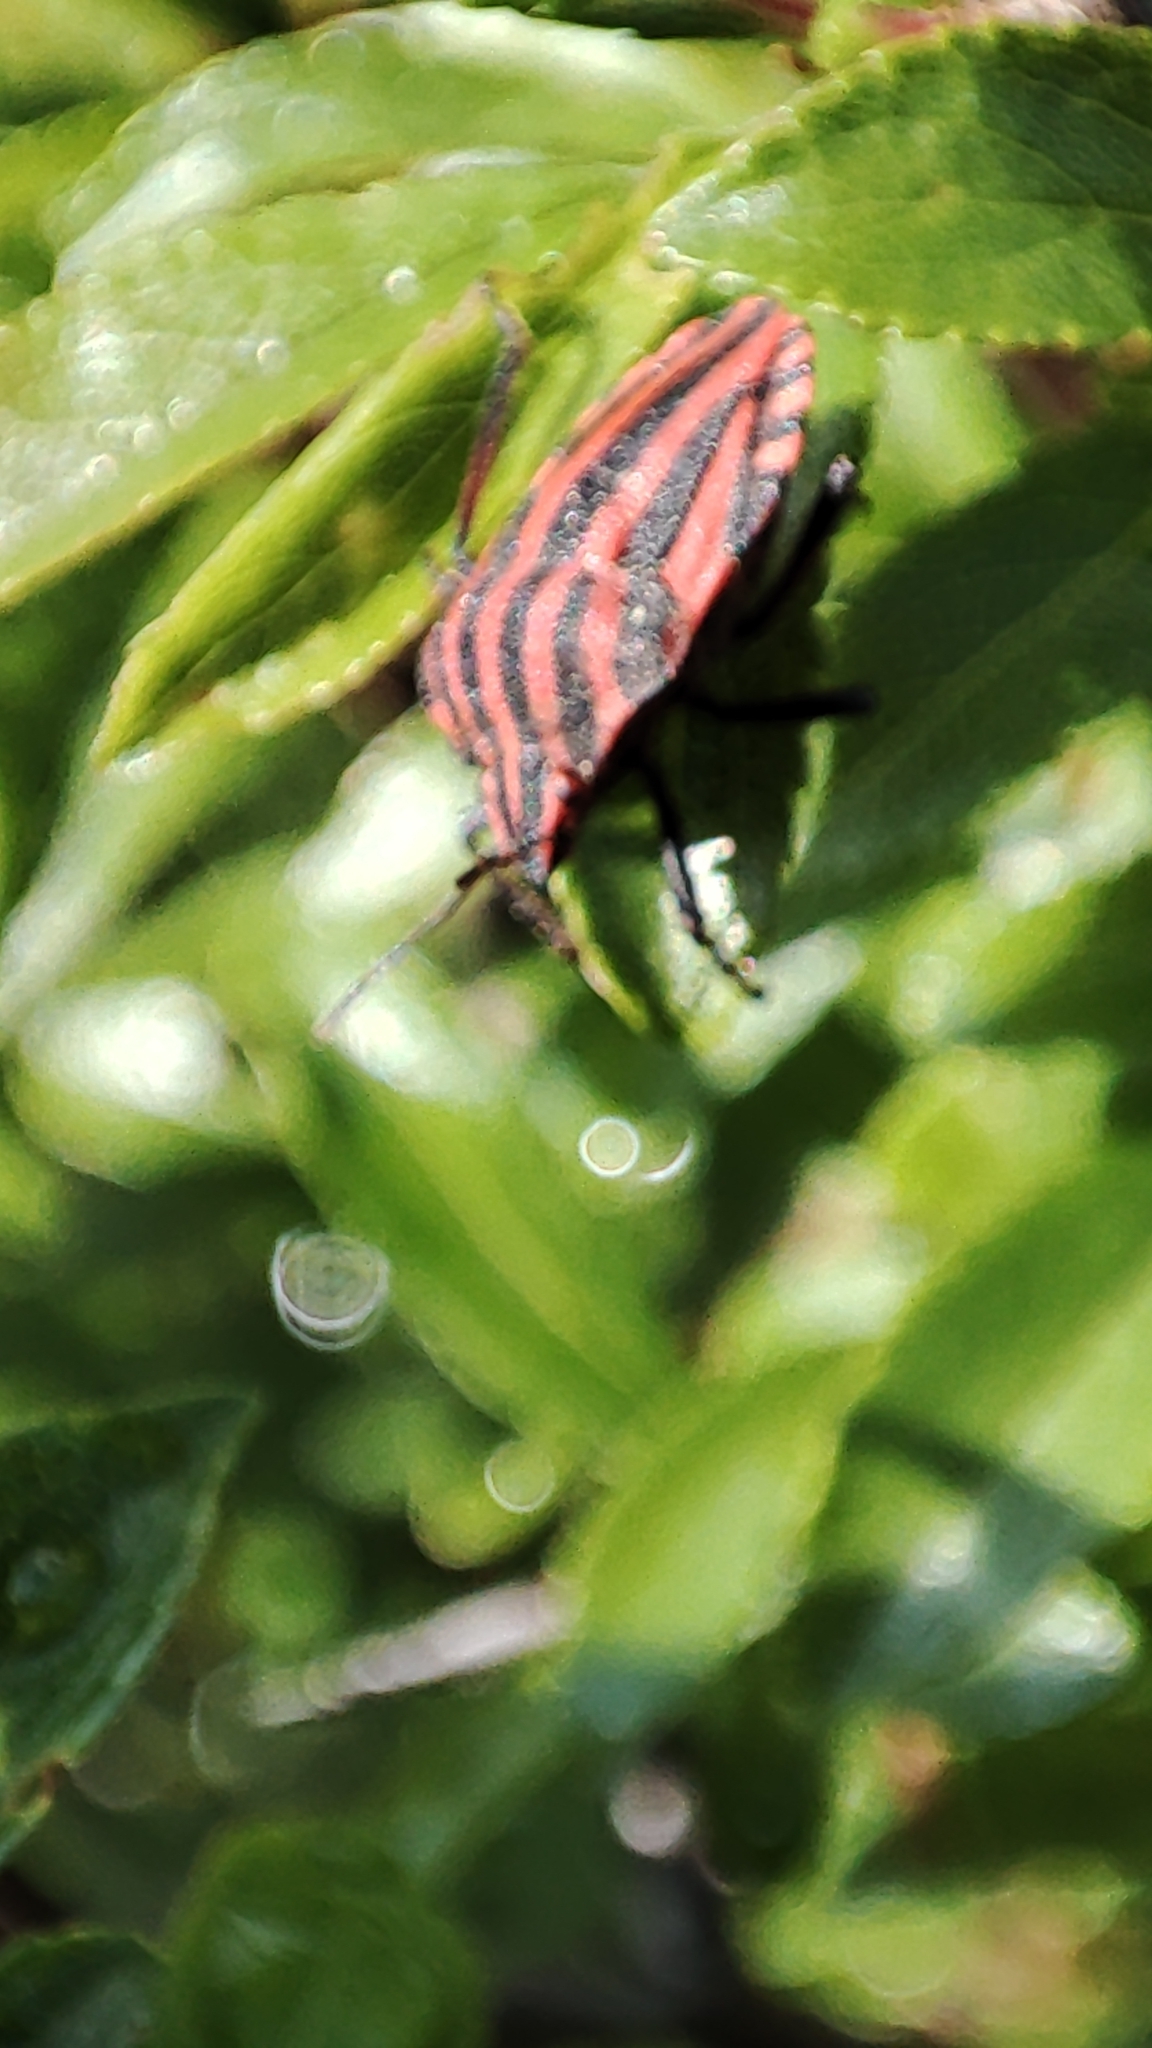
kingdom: Animalia
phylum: Arthropoda
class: Insecta
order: Hemiptera
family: Pentatomidae
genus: Graphosoma
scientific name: Graphosoma italicum
